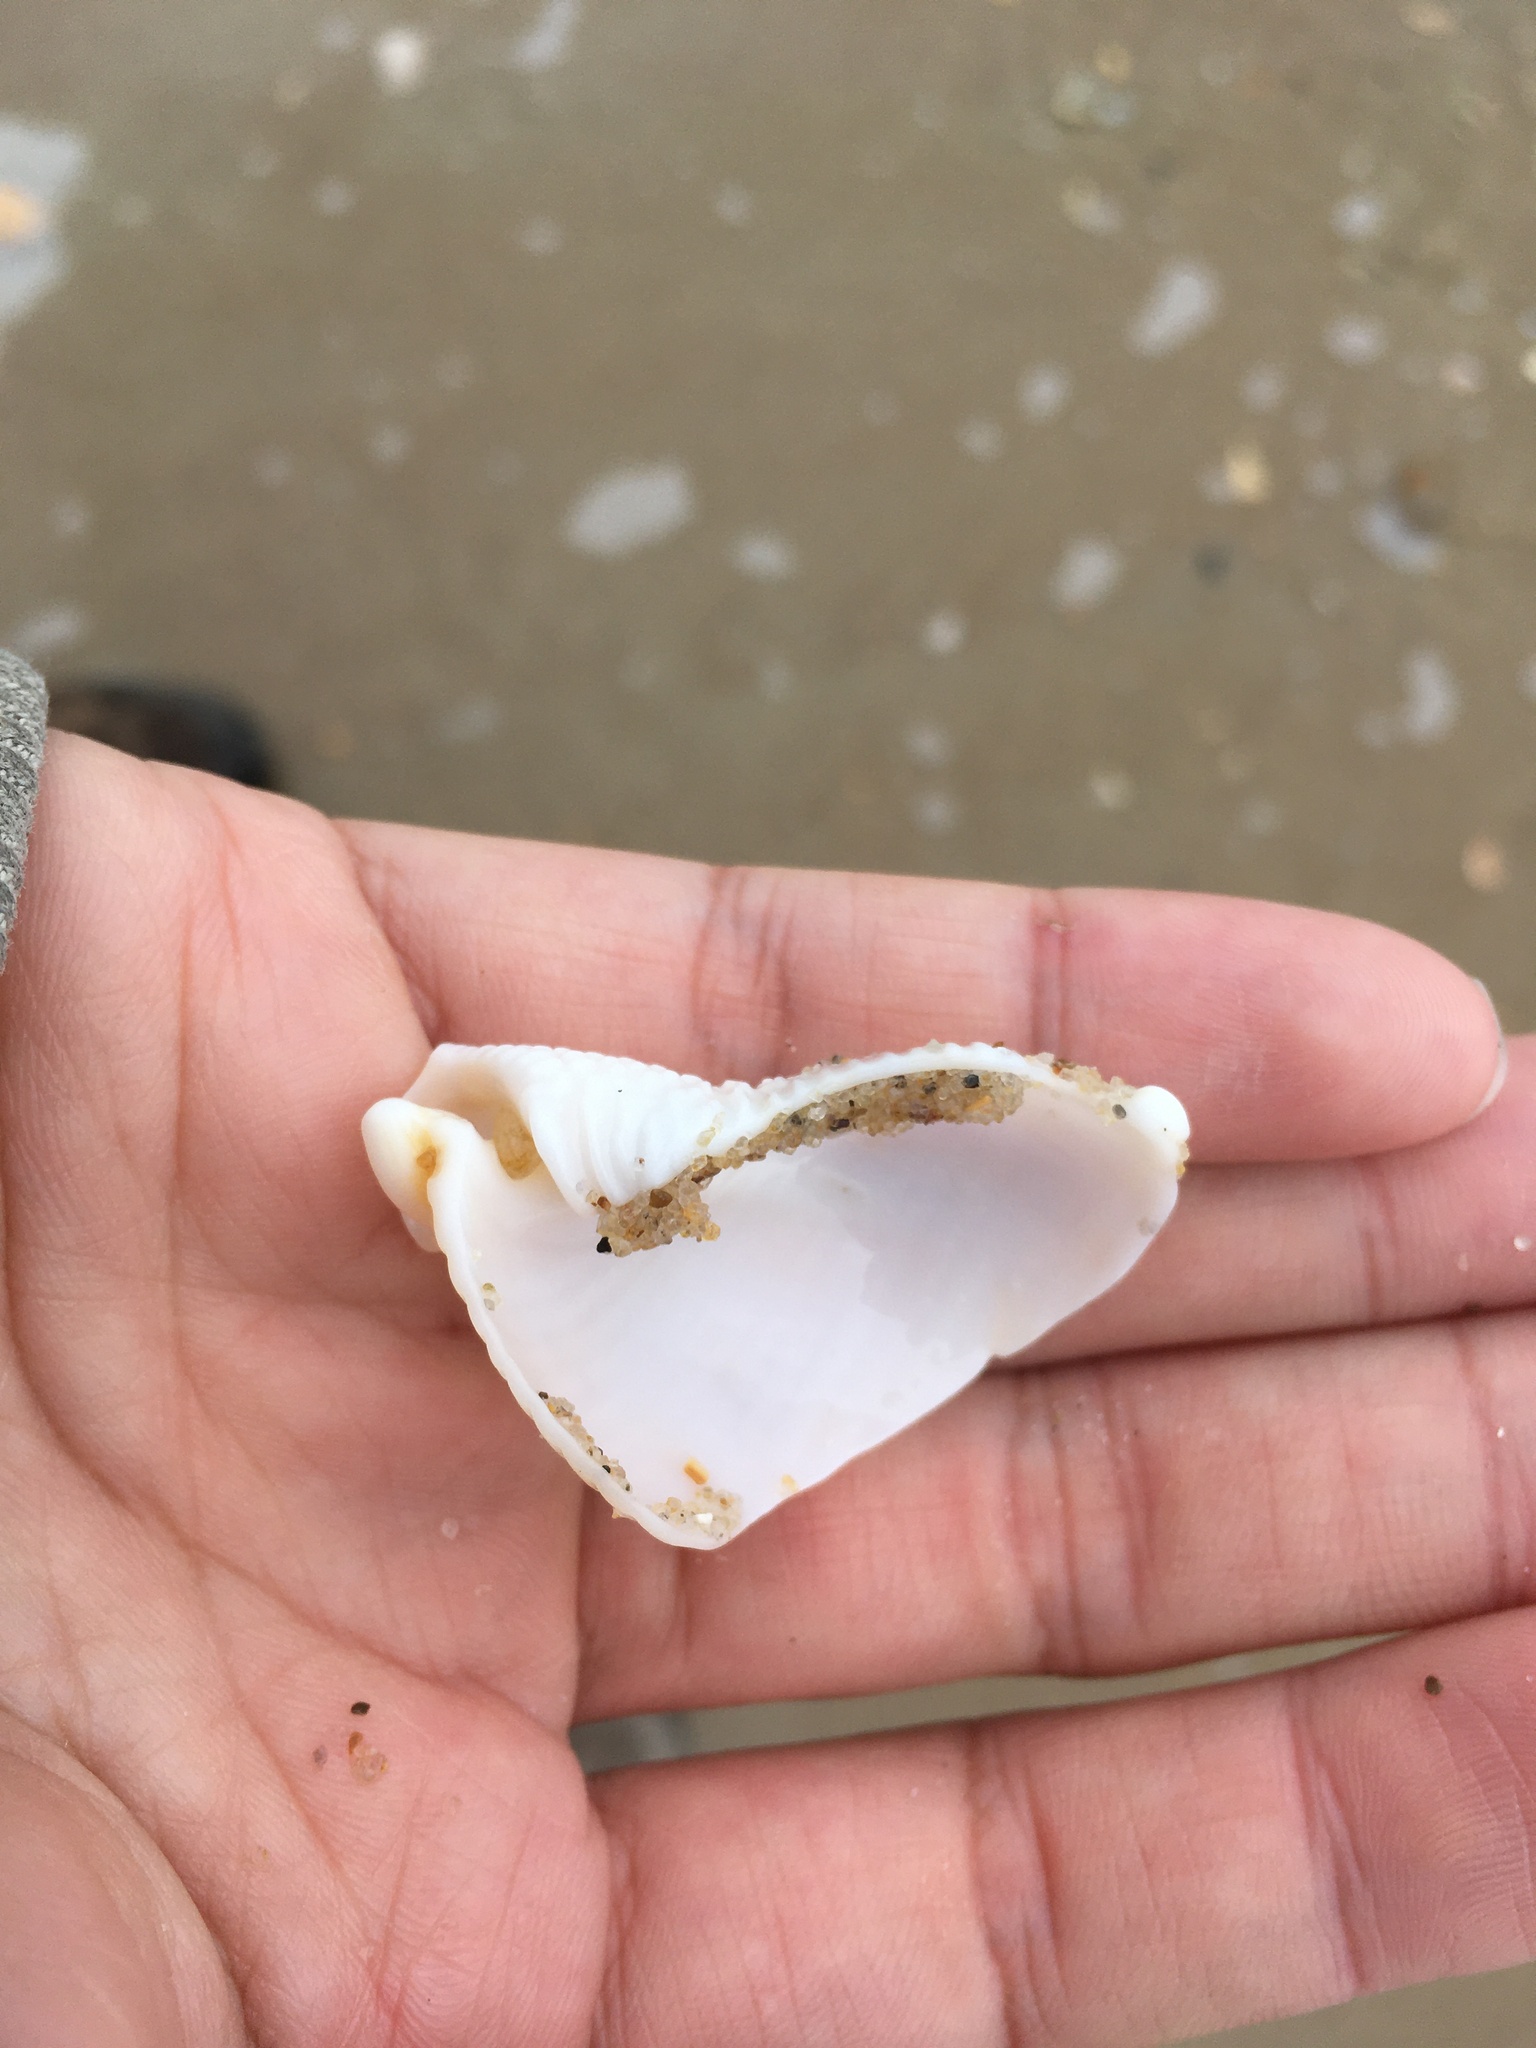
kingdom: Animalia
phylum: Mollusca
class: Gastropoda
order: Littorinimorpha
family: Cassidae
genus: Semicassis
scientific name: Semicassis granulata
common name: Scotch bonnet
